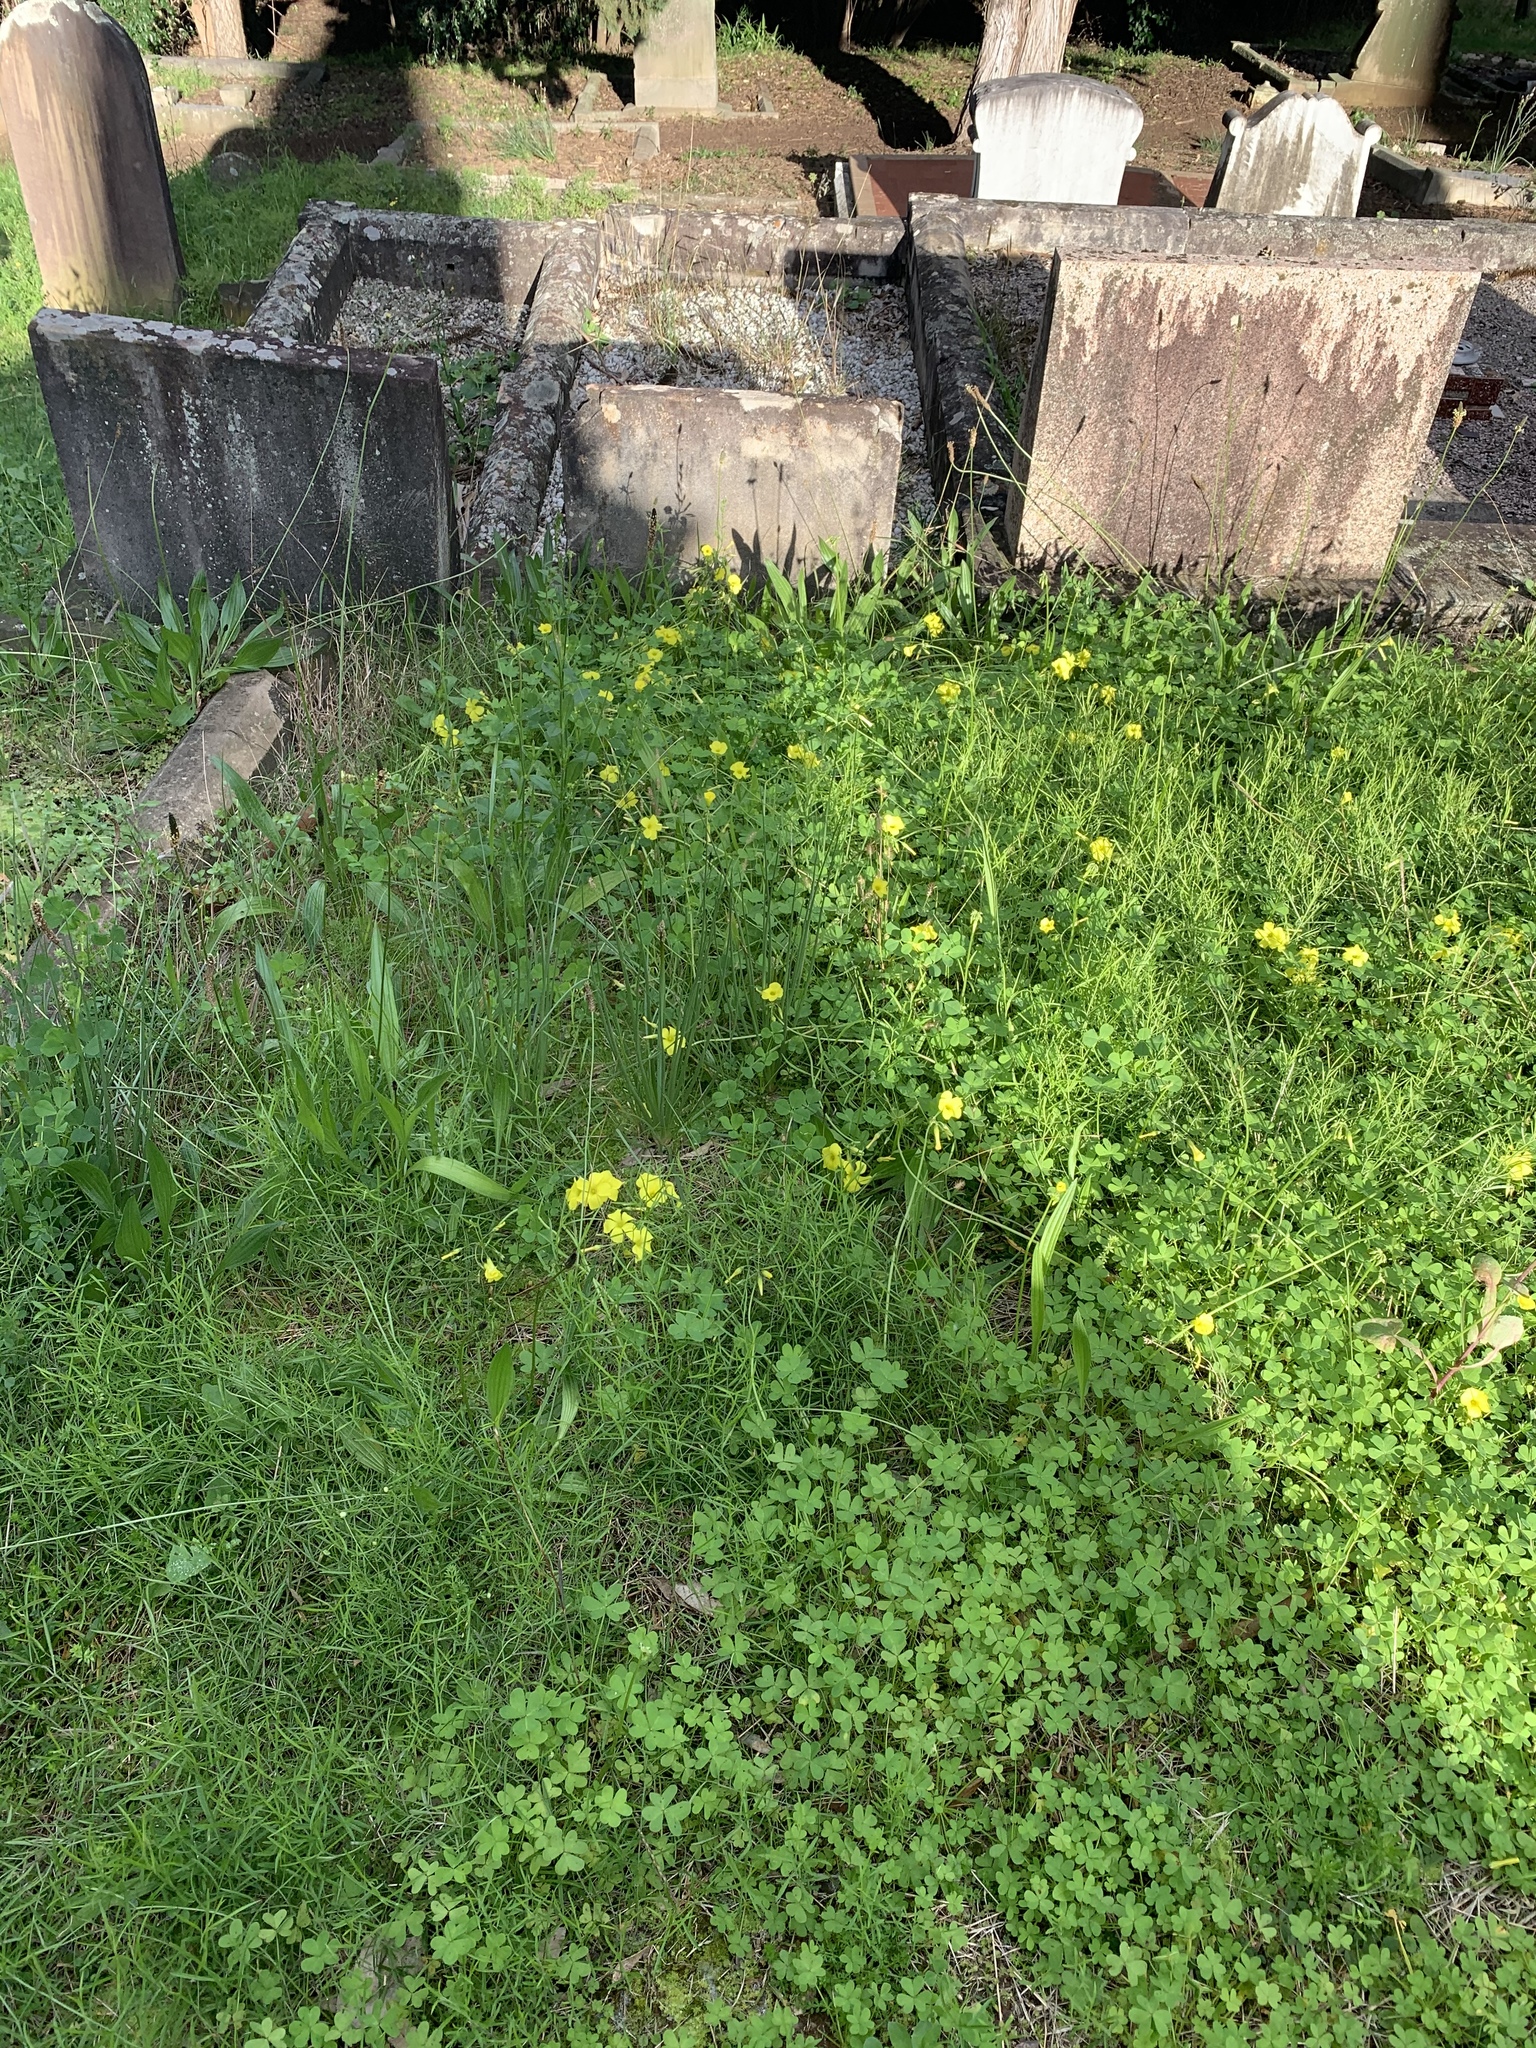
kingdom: Plantae
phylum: Tracheophyta
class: Magnoliopsida
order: Oxalidales
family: Oxalidaceae
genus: Oxalis
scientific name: Oxalis pes-caprae
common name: Bermuda-buttercup
